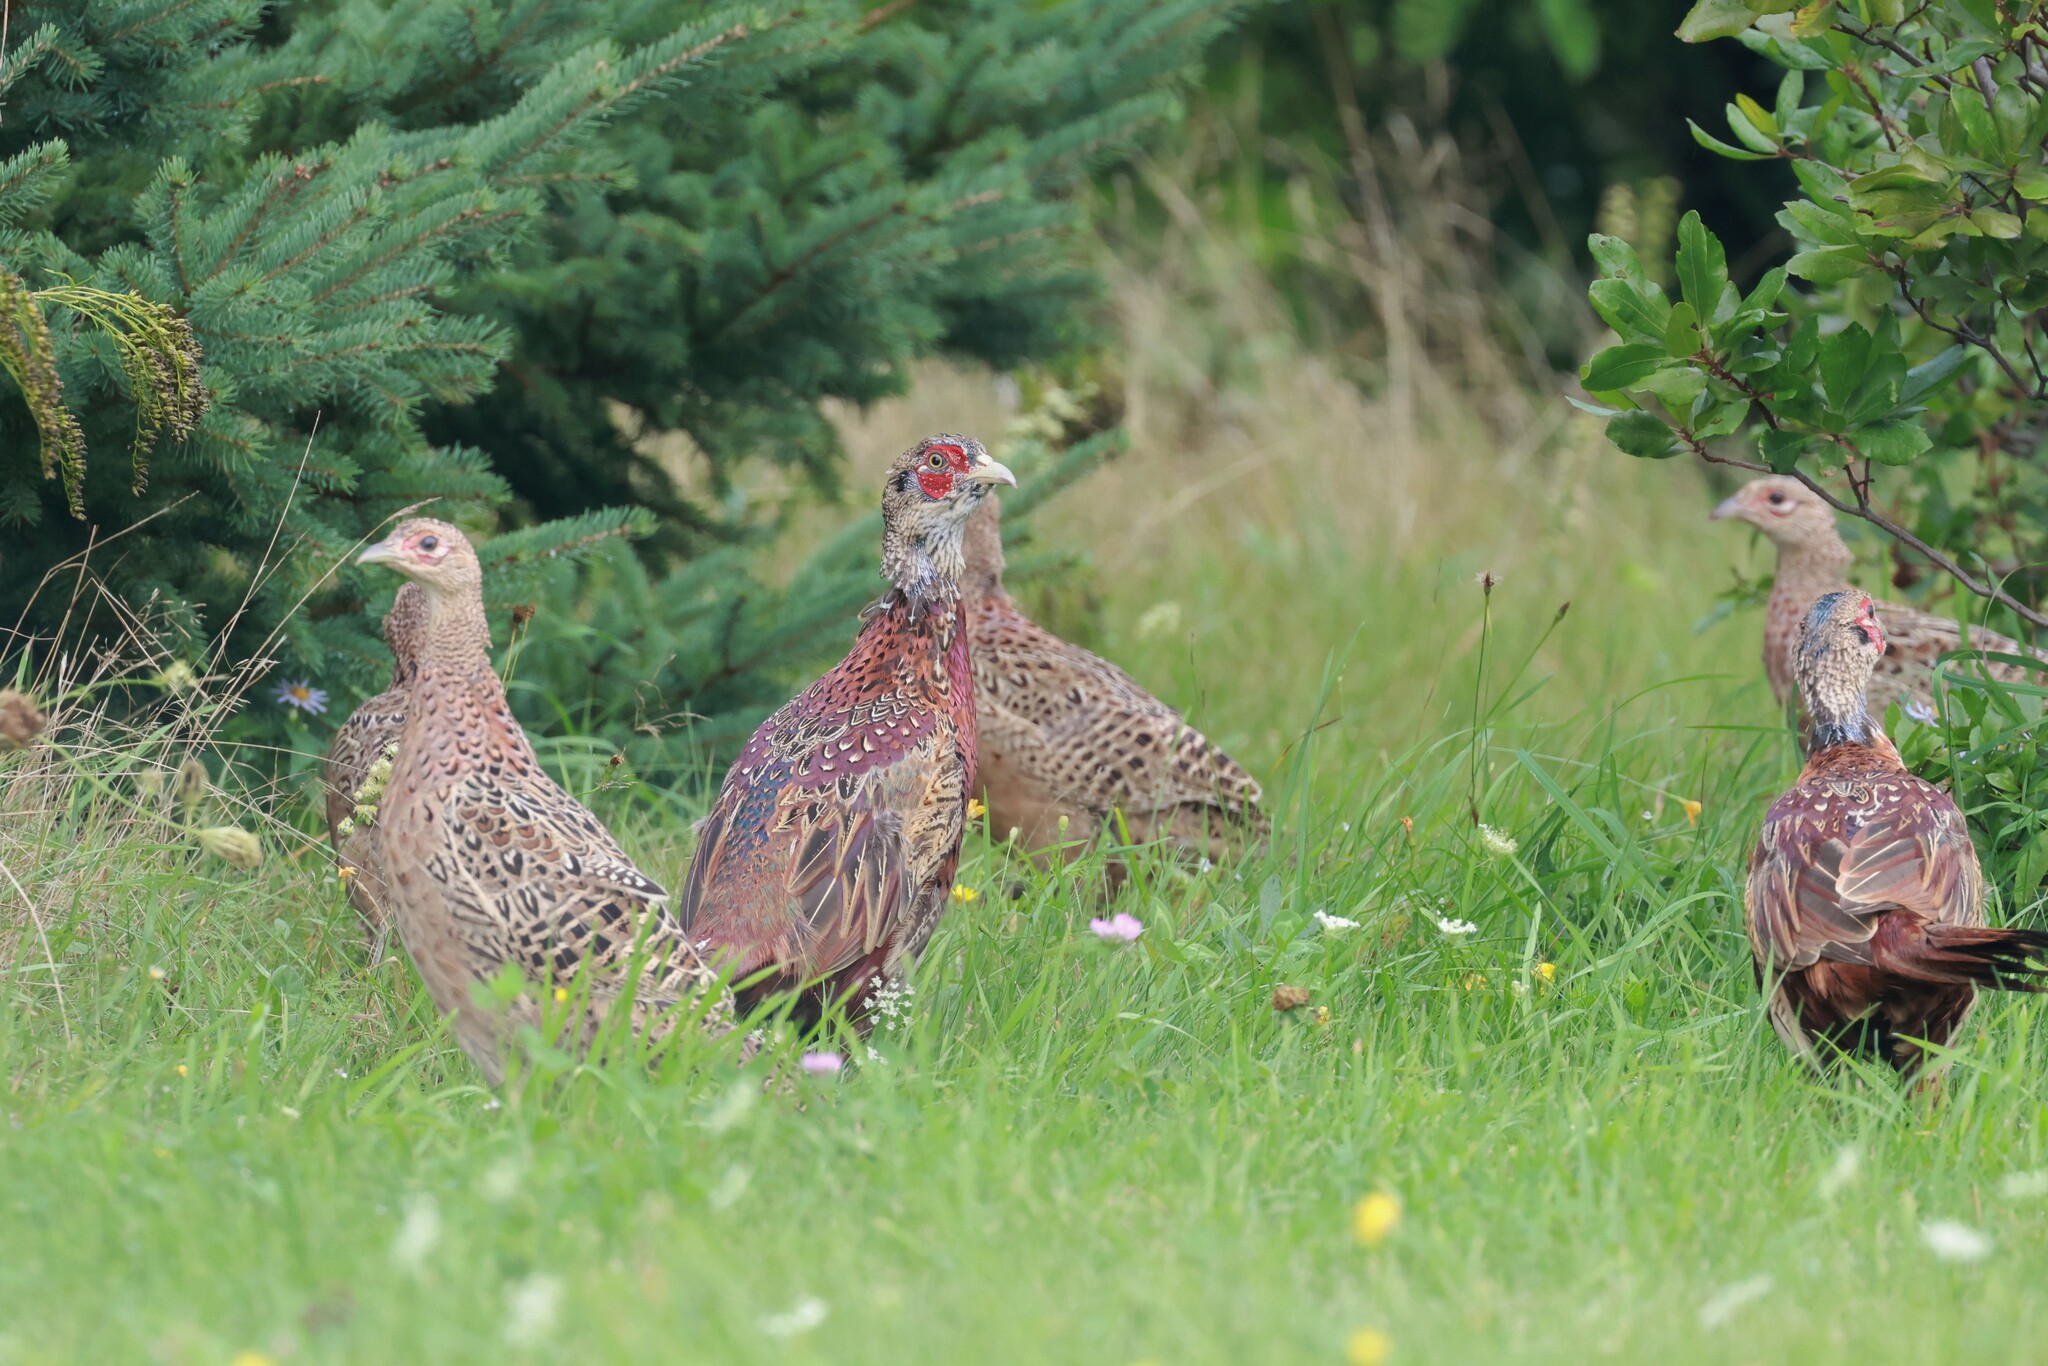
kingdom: Animalia
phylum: Chordata
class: Aves
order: Galliformes
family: Phasianidae
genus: Phasianus
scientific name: Phasianus colchicus
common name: Common pheasant
